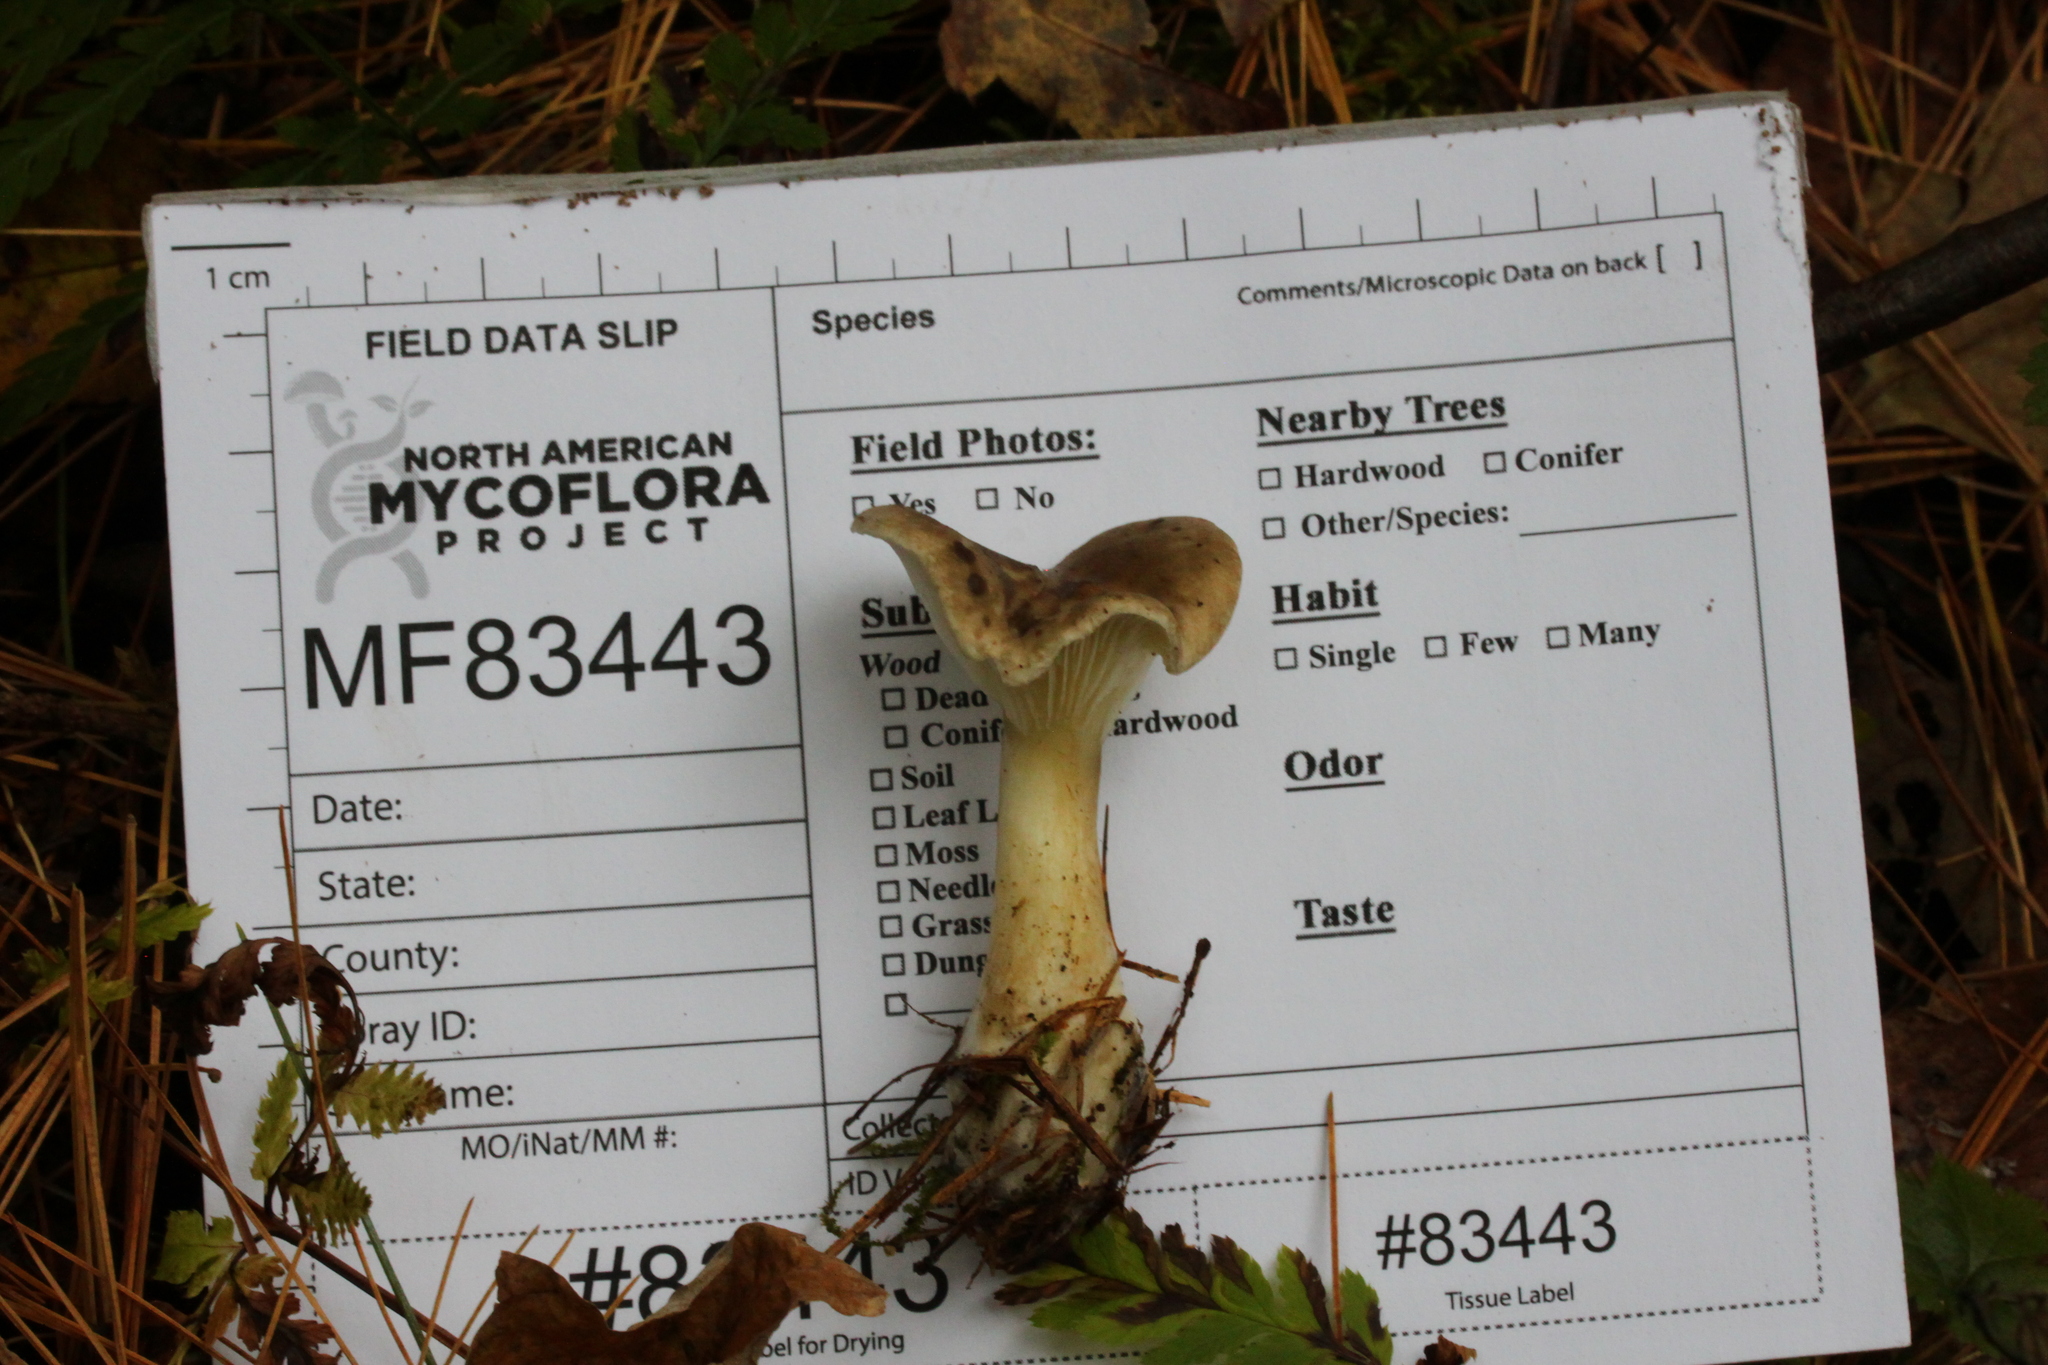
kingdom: Fungi
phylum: Basidiomycota
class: Agaricomycetes
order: Agaricales
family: Hygrophoraceae
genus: Ampulloclitocybe
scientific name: Ampulloclitocybe clavipes
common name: Club foot
